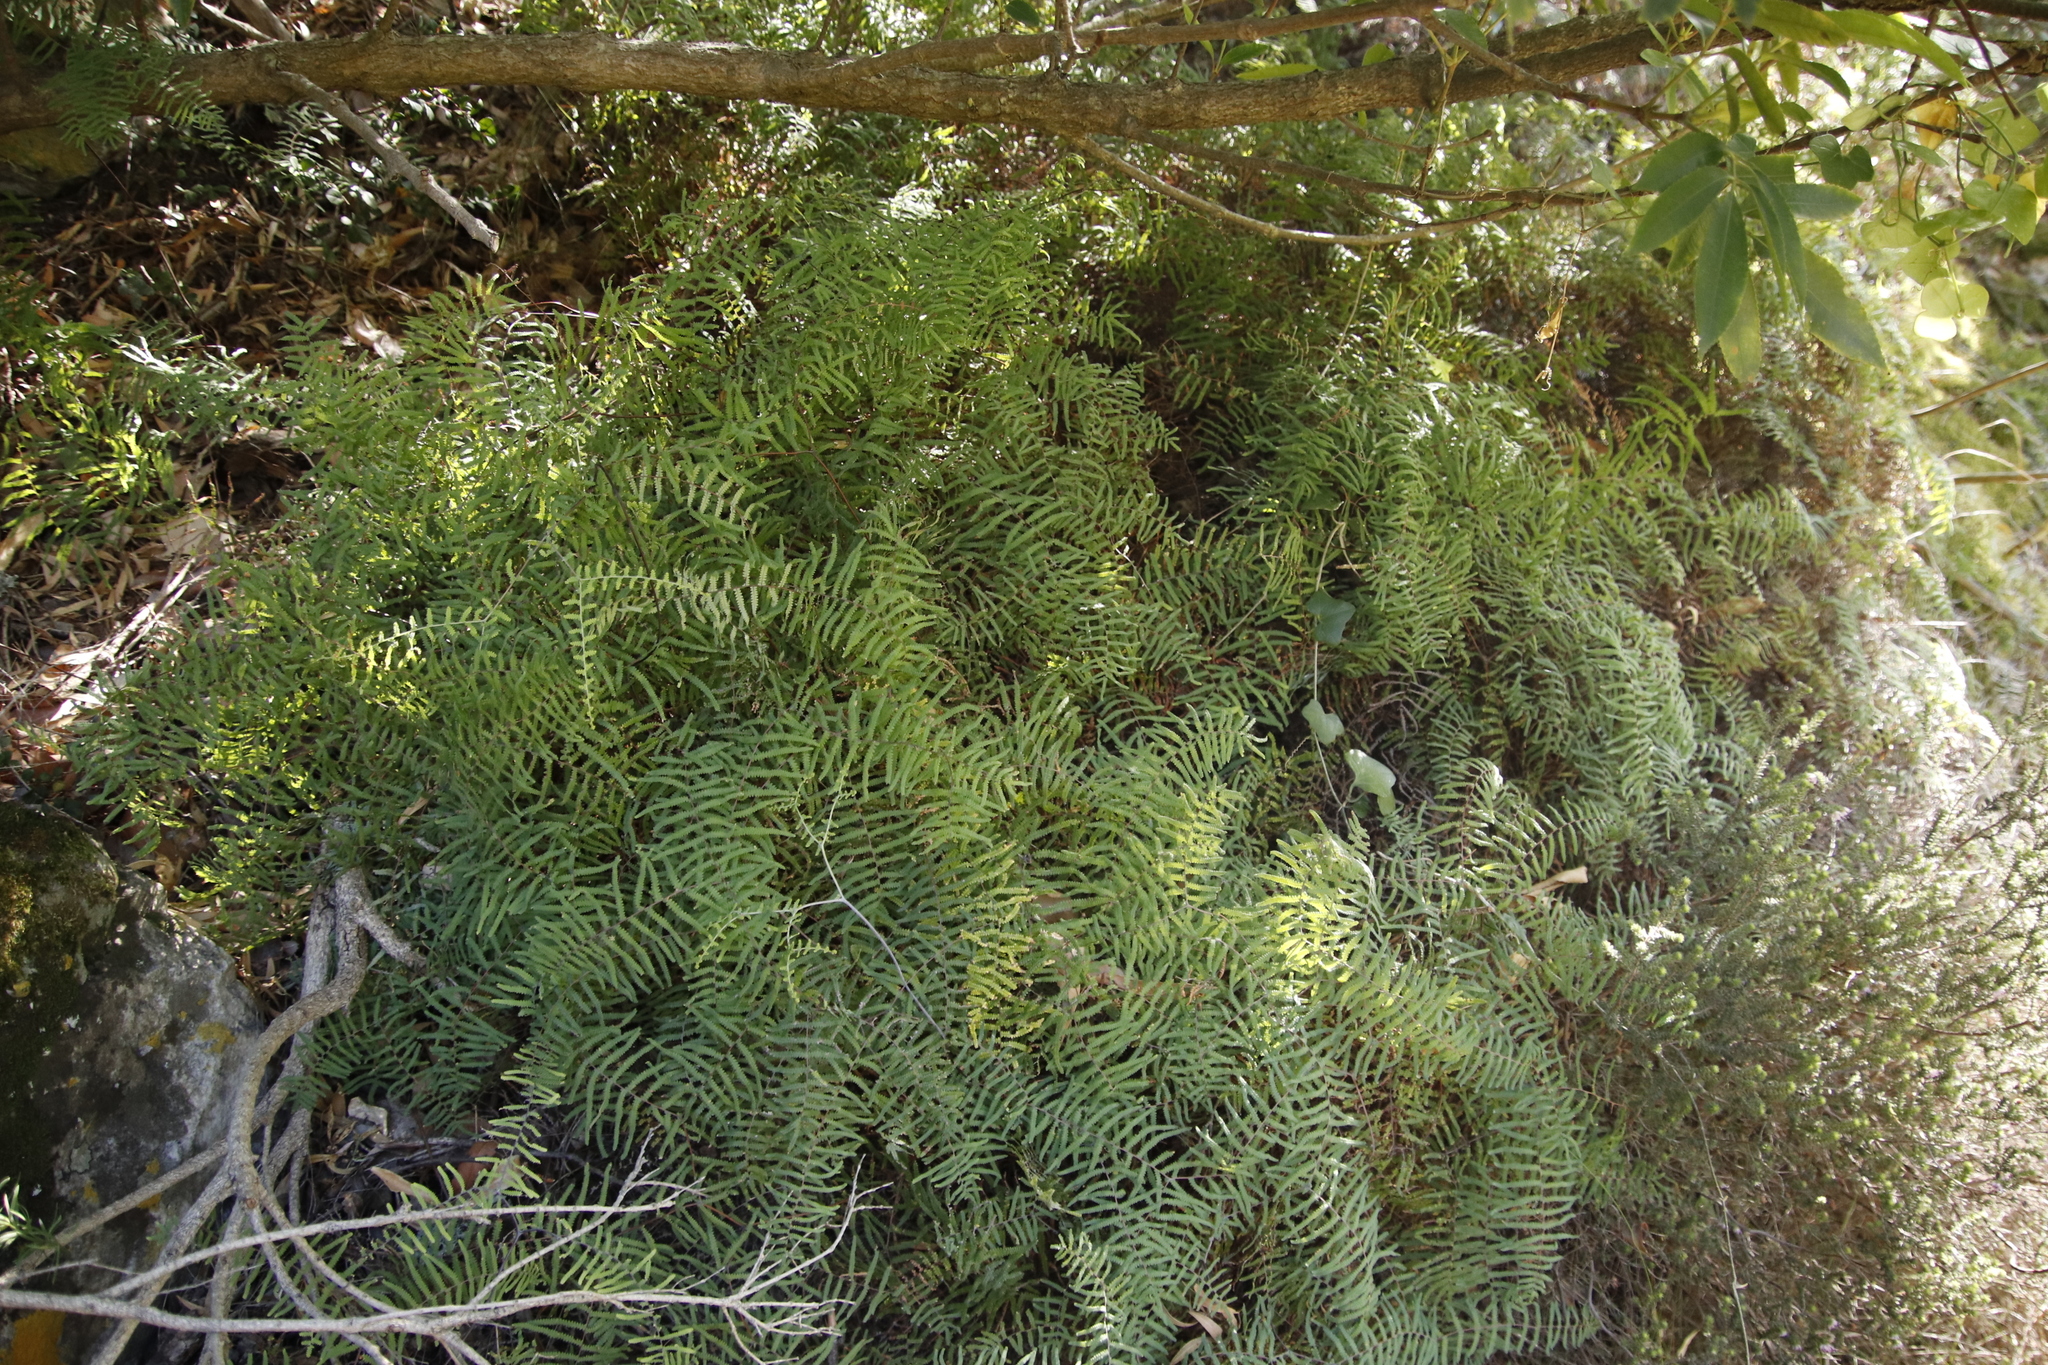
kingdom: Plantae
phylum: Tracheophyta
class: Polypodiopsida
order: Gleicheniales
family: Gleicheniaceae
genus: Gleichenia
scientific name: Gleichenia polypodioides
